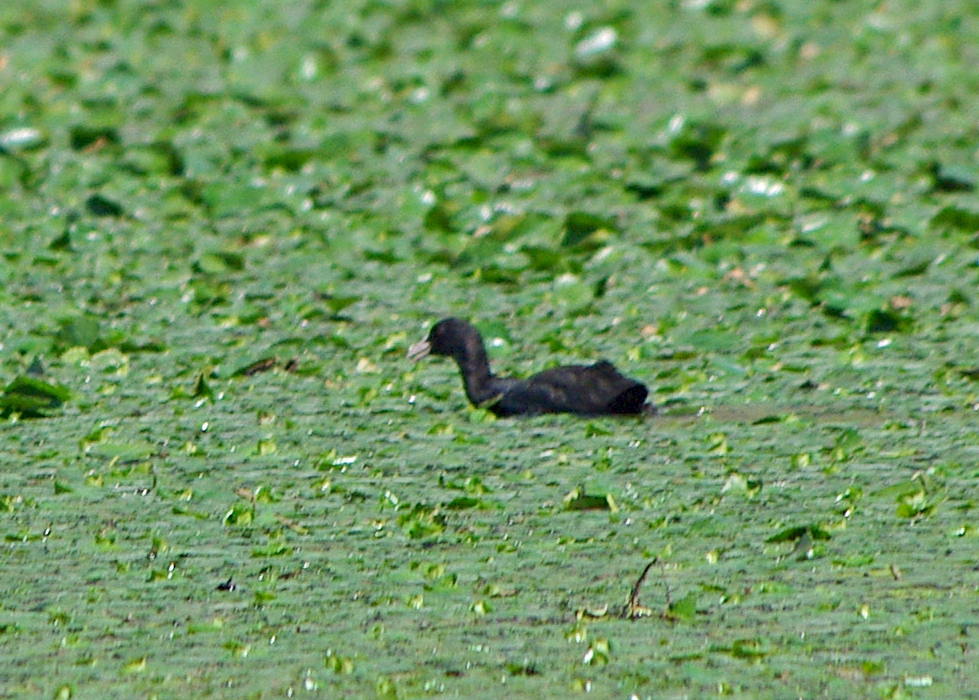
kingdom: Animalia
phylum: Chordata
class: Aves
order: Gruiformes
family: Rallidae
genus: Fulica
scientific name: Fulica atra
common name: Eurasian coot
